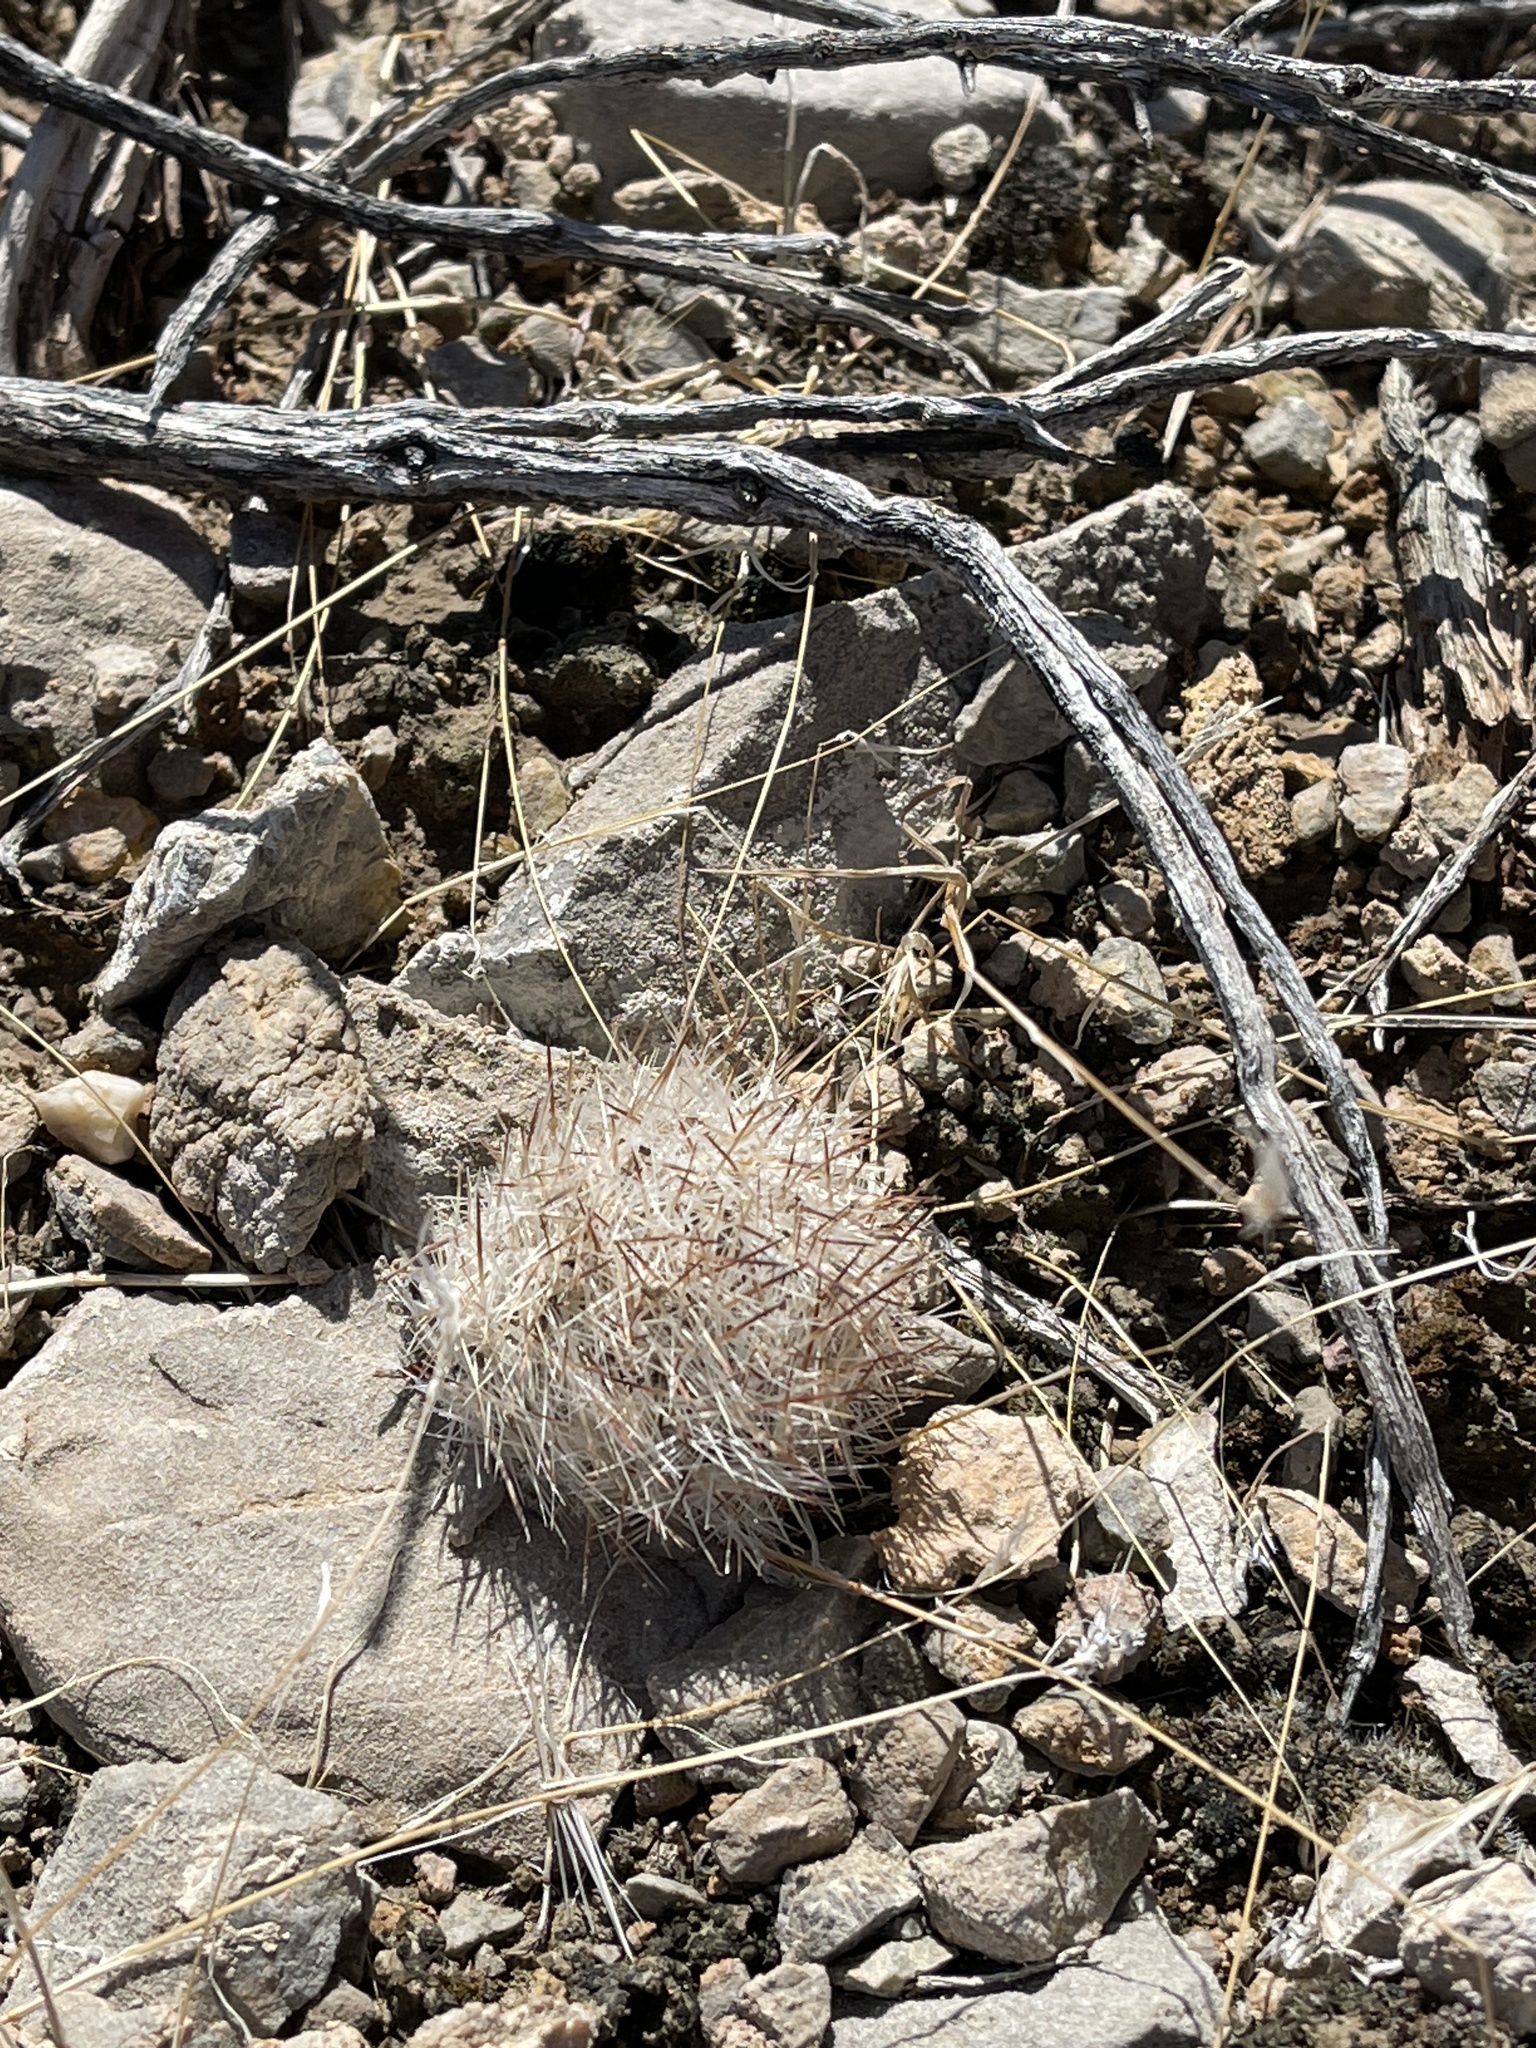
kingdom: Plantae
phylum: Tracheophyta
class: Magnoliopsida
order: Caryophyllales
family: Cactaceae
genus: Pelecyphora
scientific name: Pelecyphora vivipara
